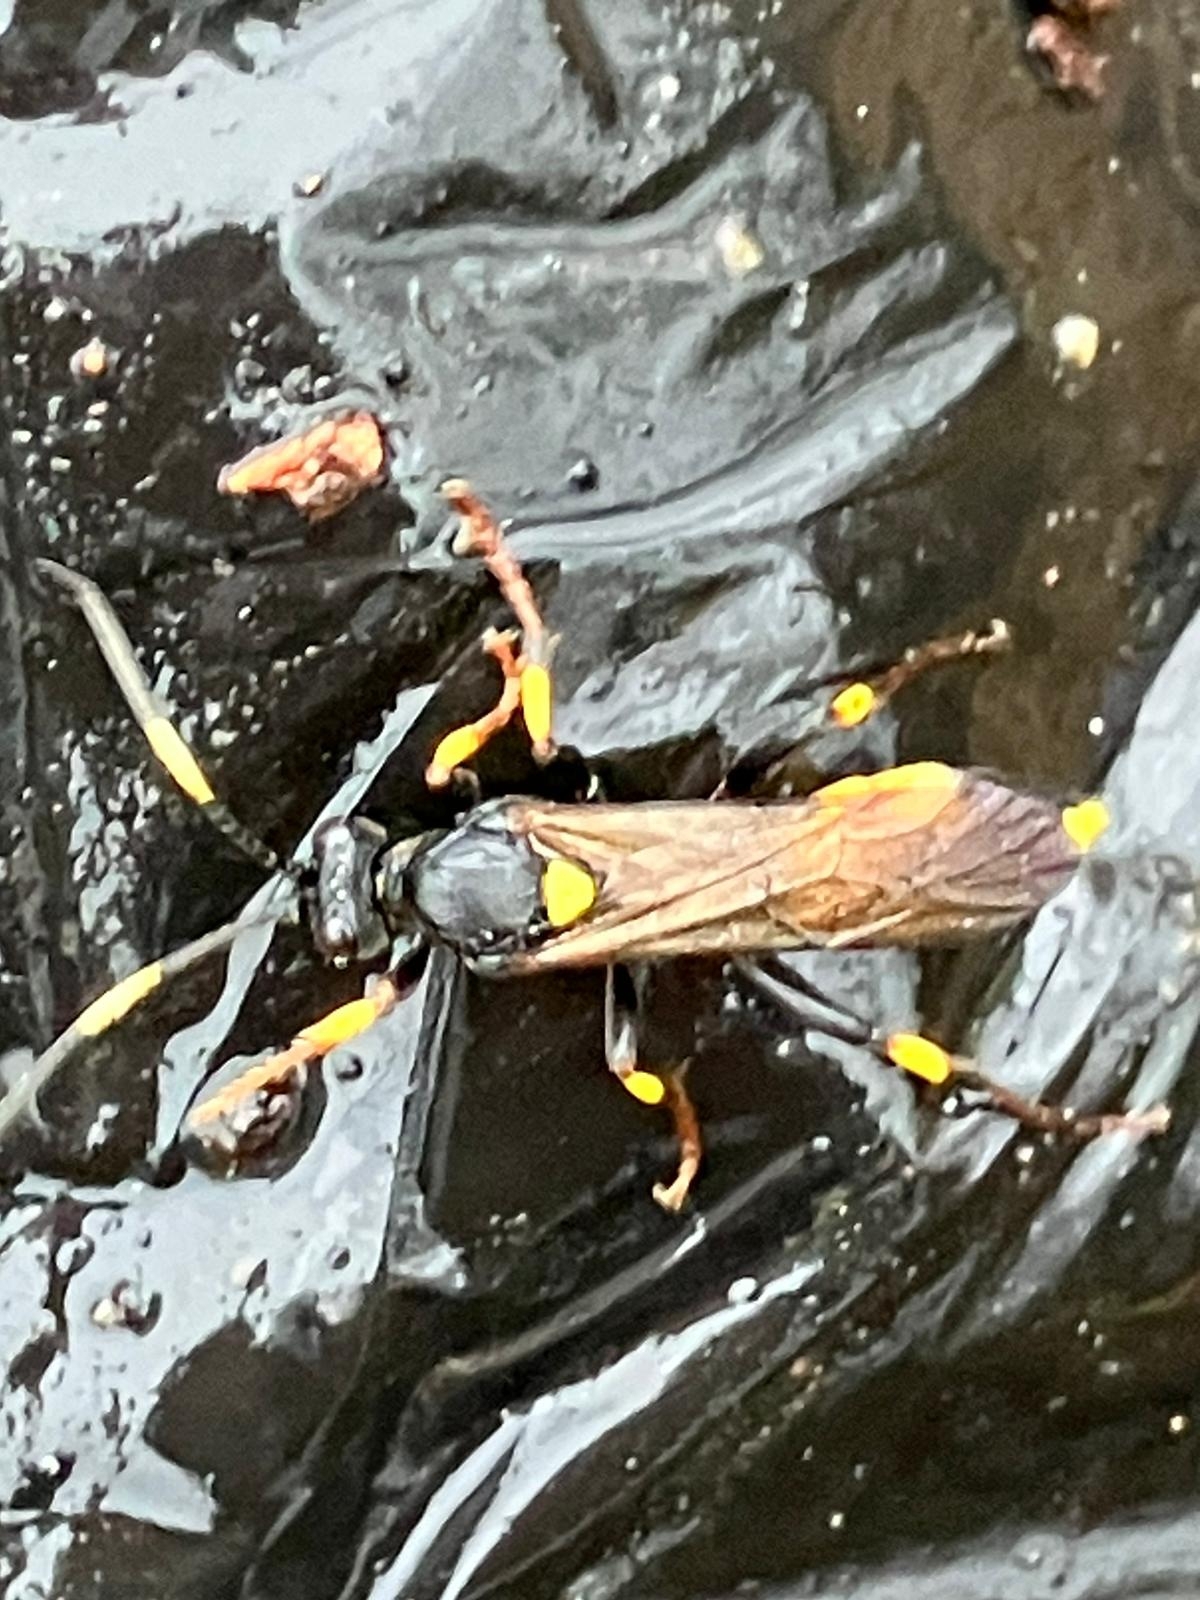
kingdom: Animalia
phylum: Arthropoda
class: Insecta
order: Hymenoptera
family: Ichneumonidae
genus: Ichneumon
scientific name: Ichneumon stramentor
